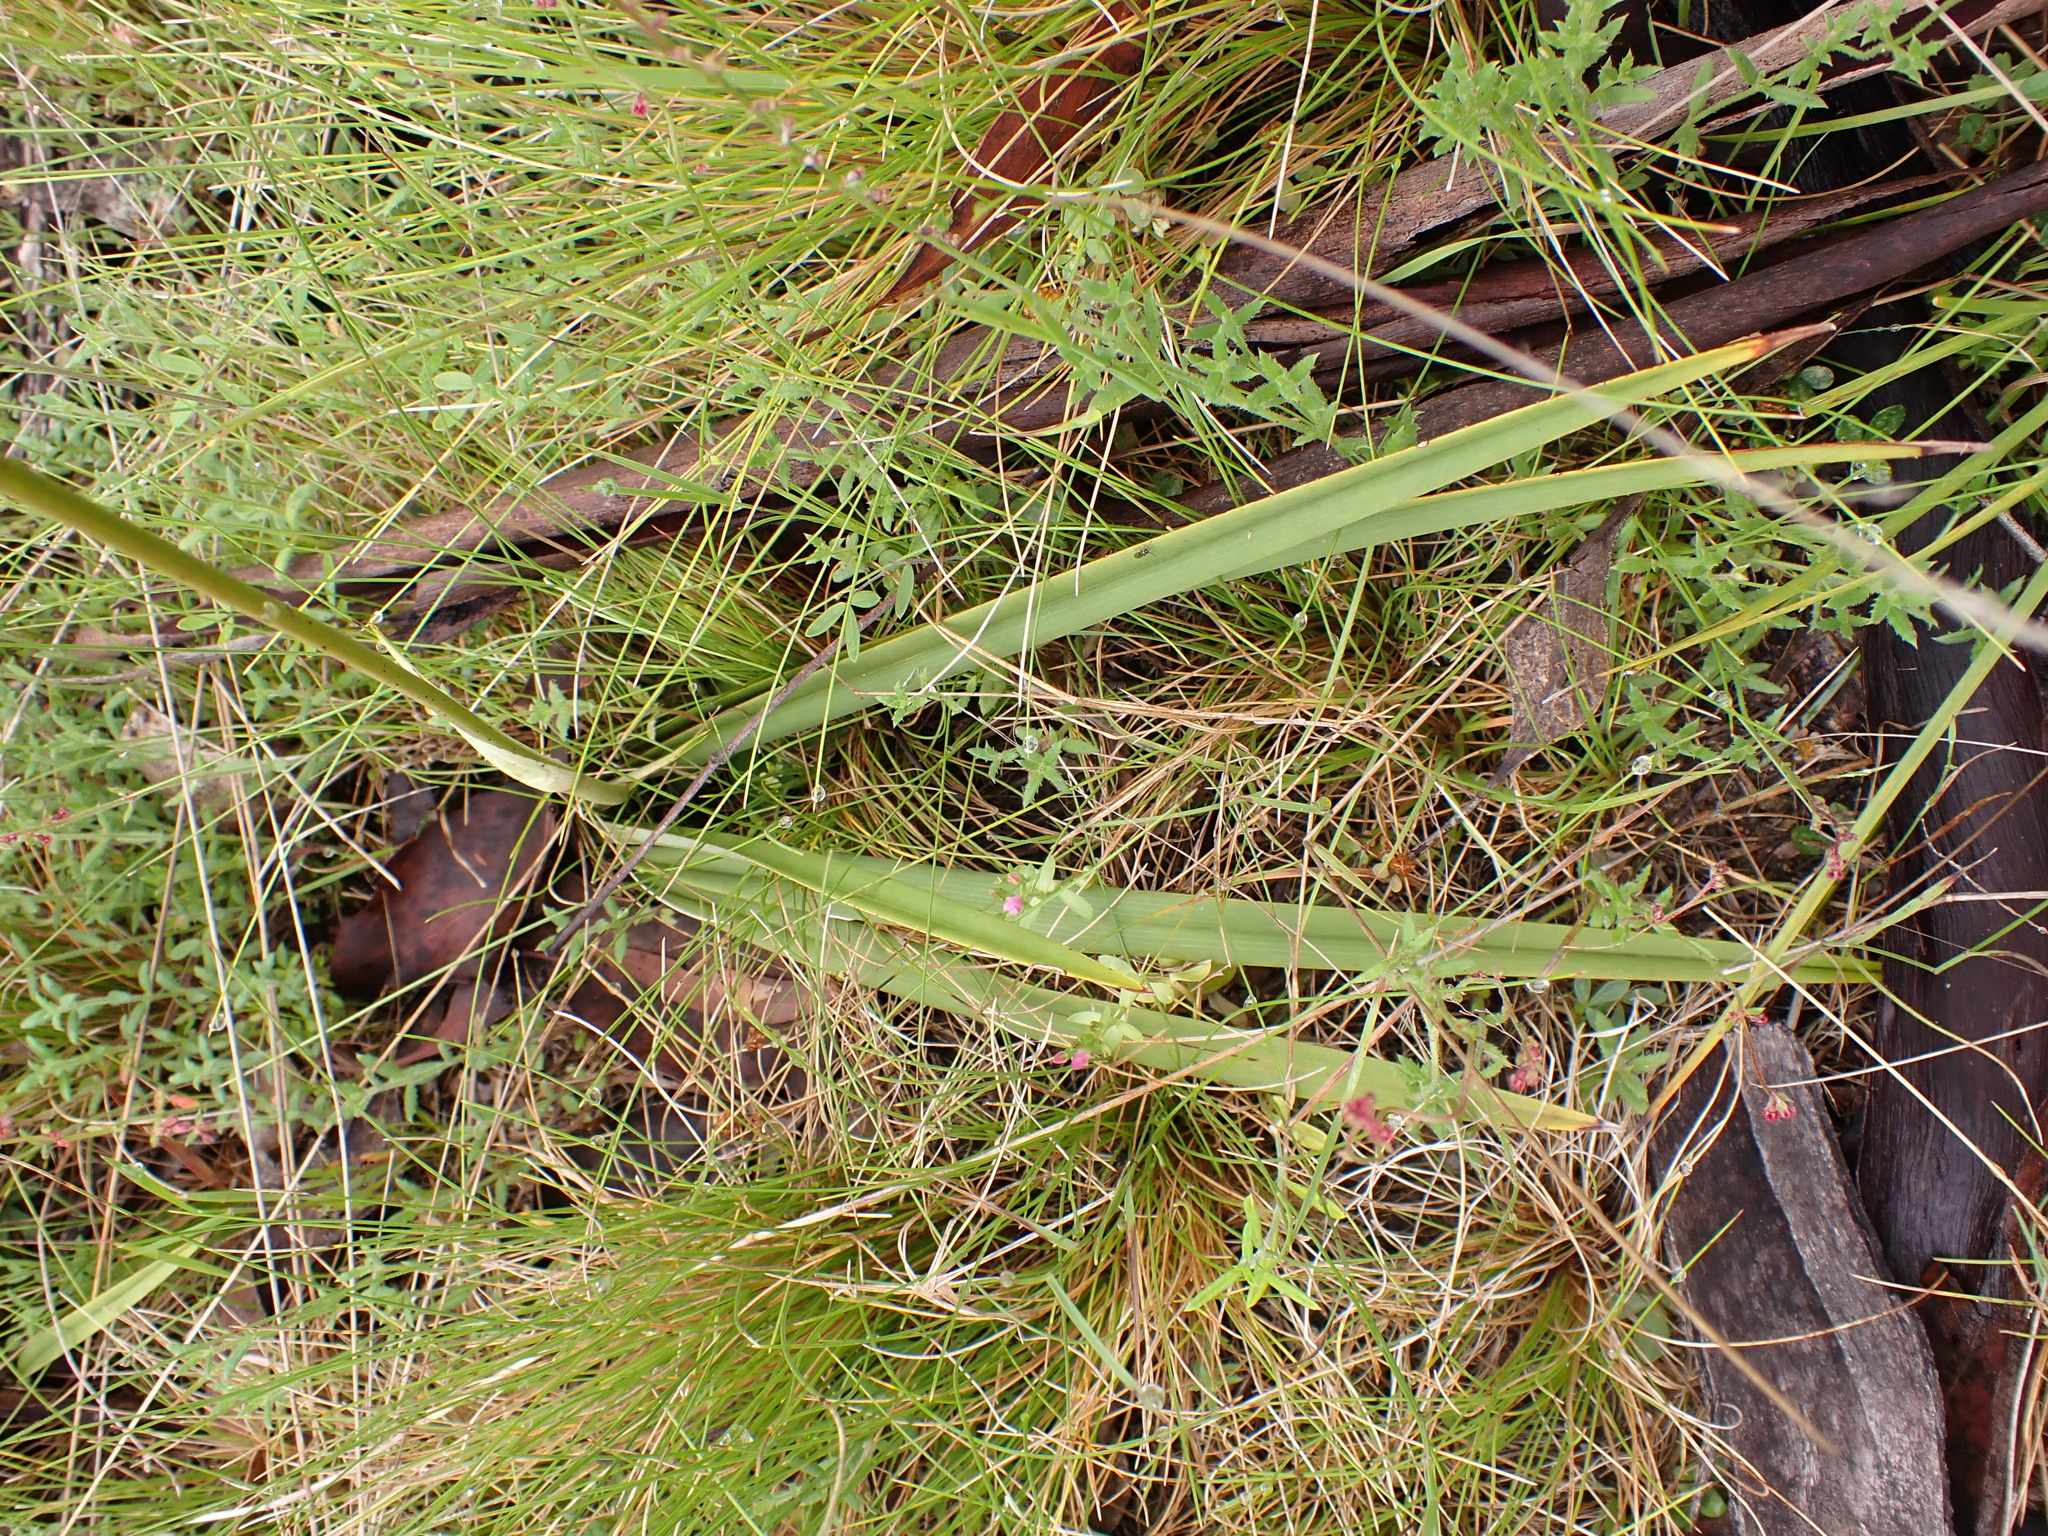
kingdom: Plantae
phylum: Tracheophyta
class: Liliopsida
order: Asparagales
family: Asphodelaceae
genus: Dianella
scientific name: Dianella revoluta
